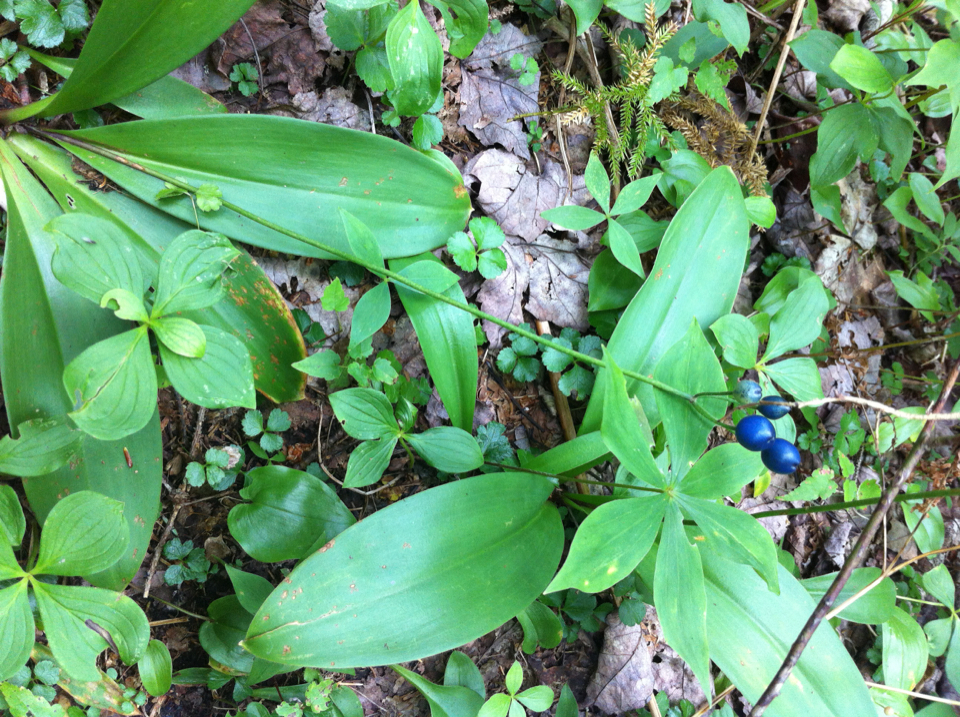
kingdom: Plantae
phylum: Tracheophyta
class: Liliopsida
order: Liliales
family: Liliaceae
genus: Clintonia
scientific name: Clintonia borealis
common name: Yellow clintonia
